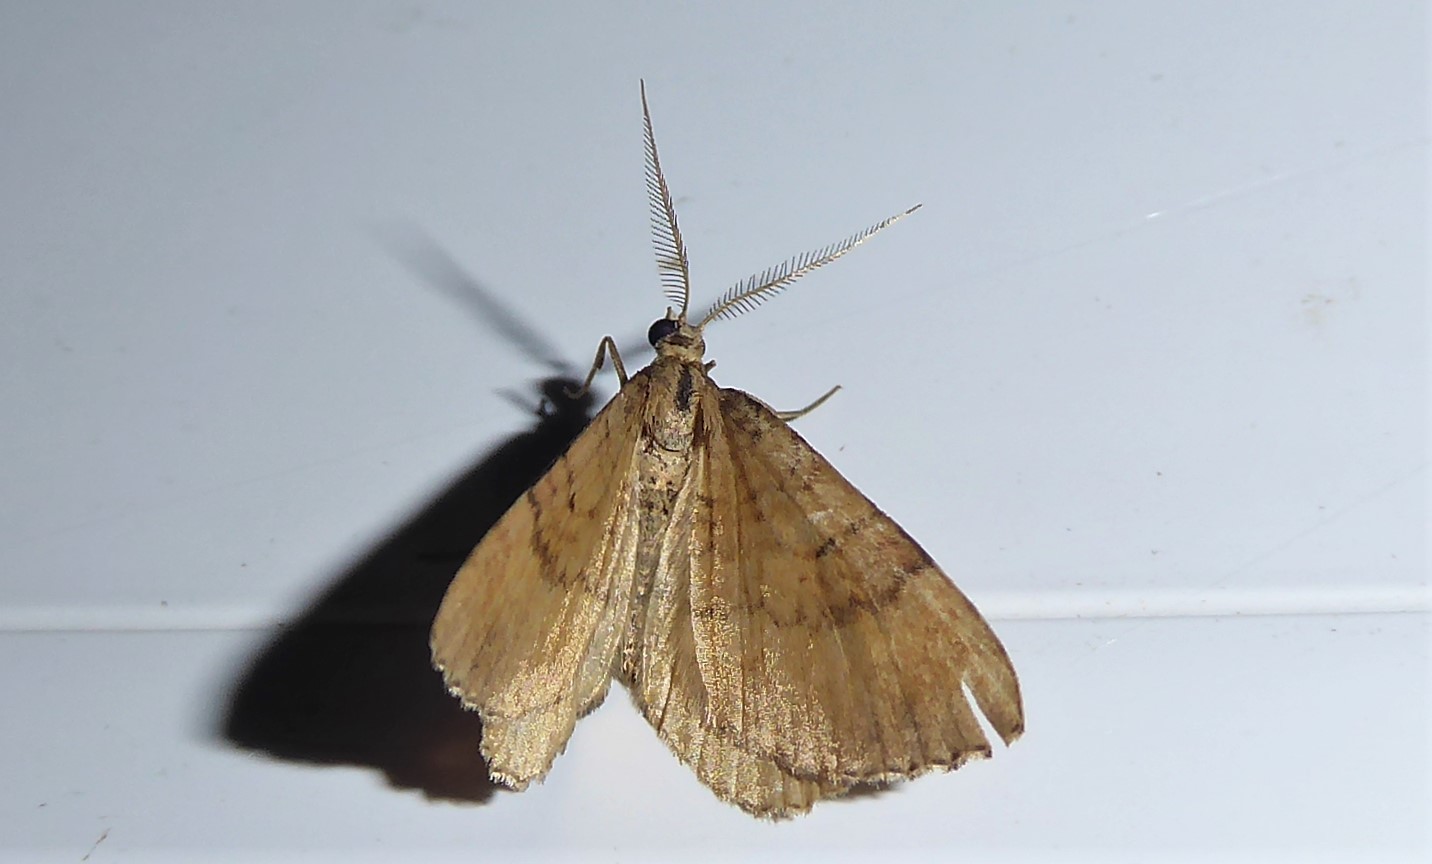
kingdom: Animalia
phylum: Arthropoda
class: Insecta
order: Lepidoptera
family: Geometridae
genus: Asaphodes
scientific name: Asaphodes aegrota
